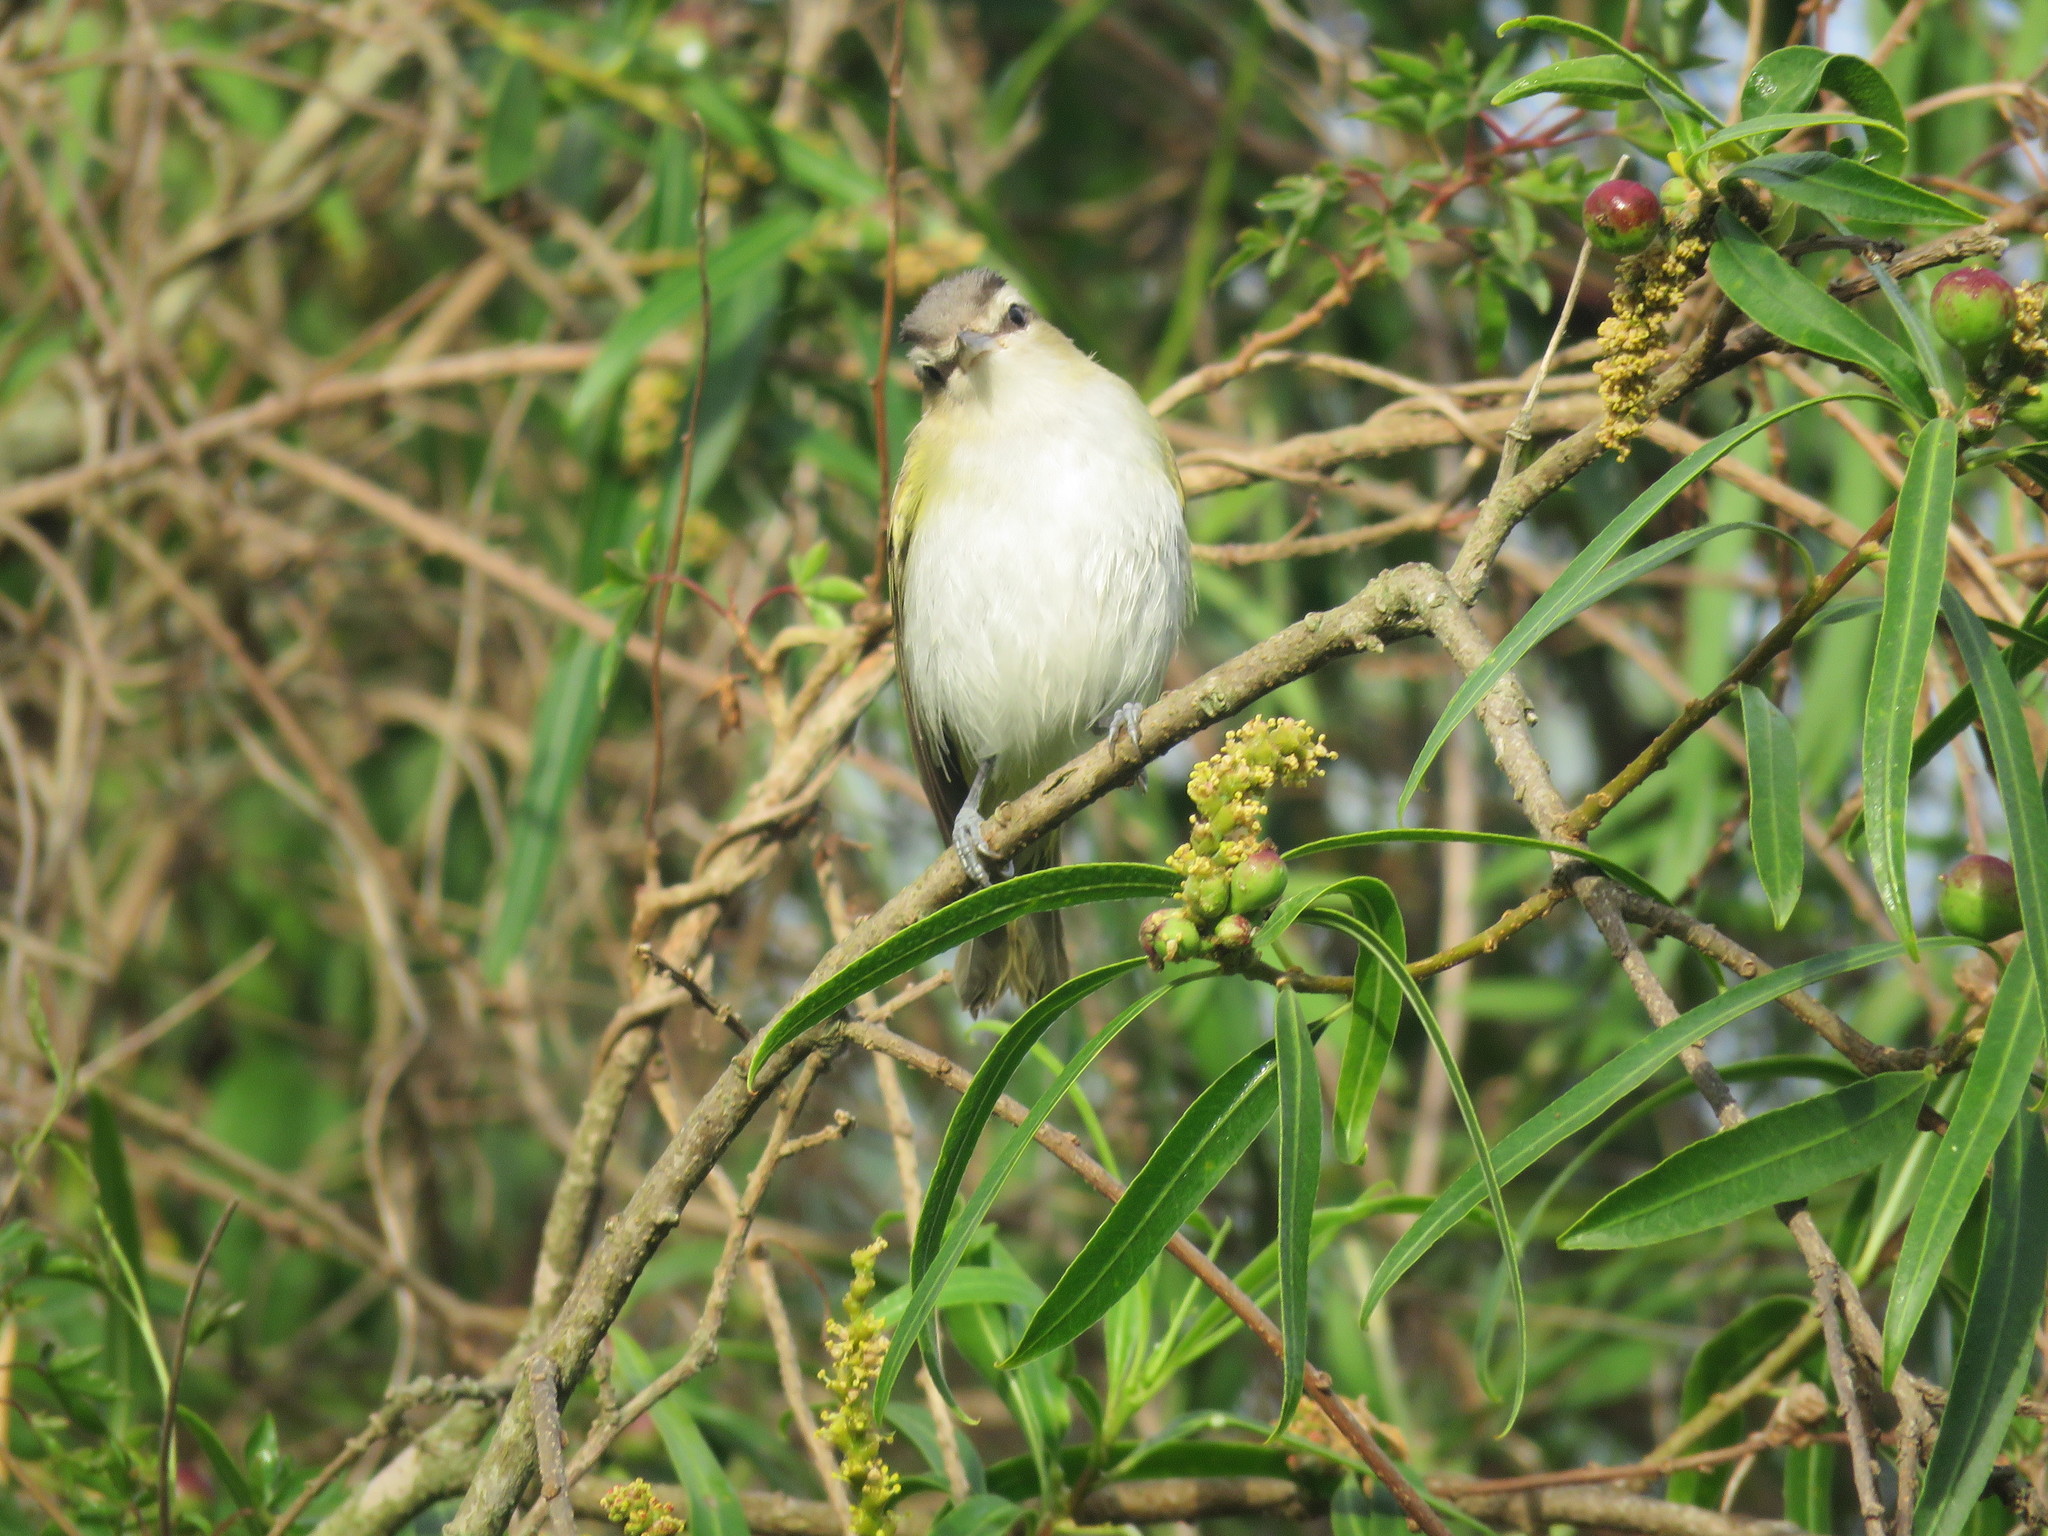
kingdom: Animalia
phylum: Chordata
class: Aves
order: Passeriformes
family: Vireonidae
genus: Vireo
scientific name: Vireo olivaceus
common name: Red-eyed vireo
